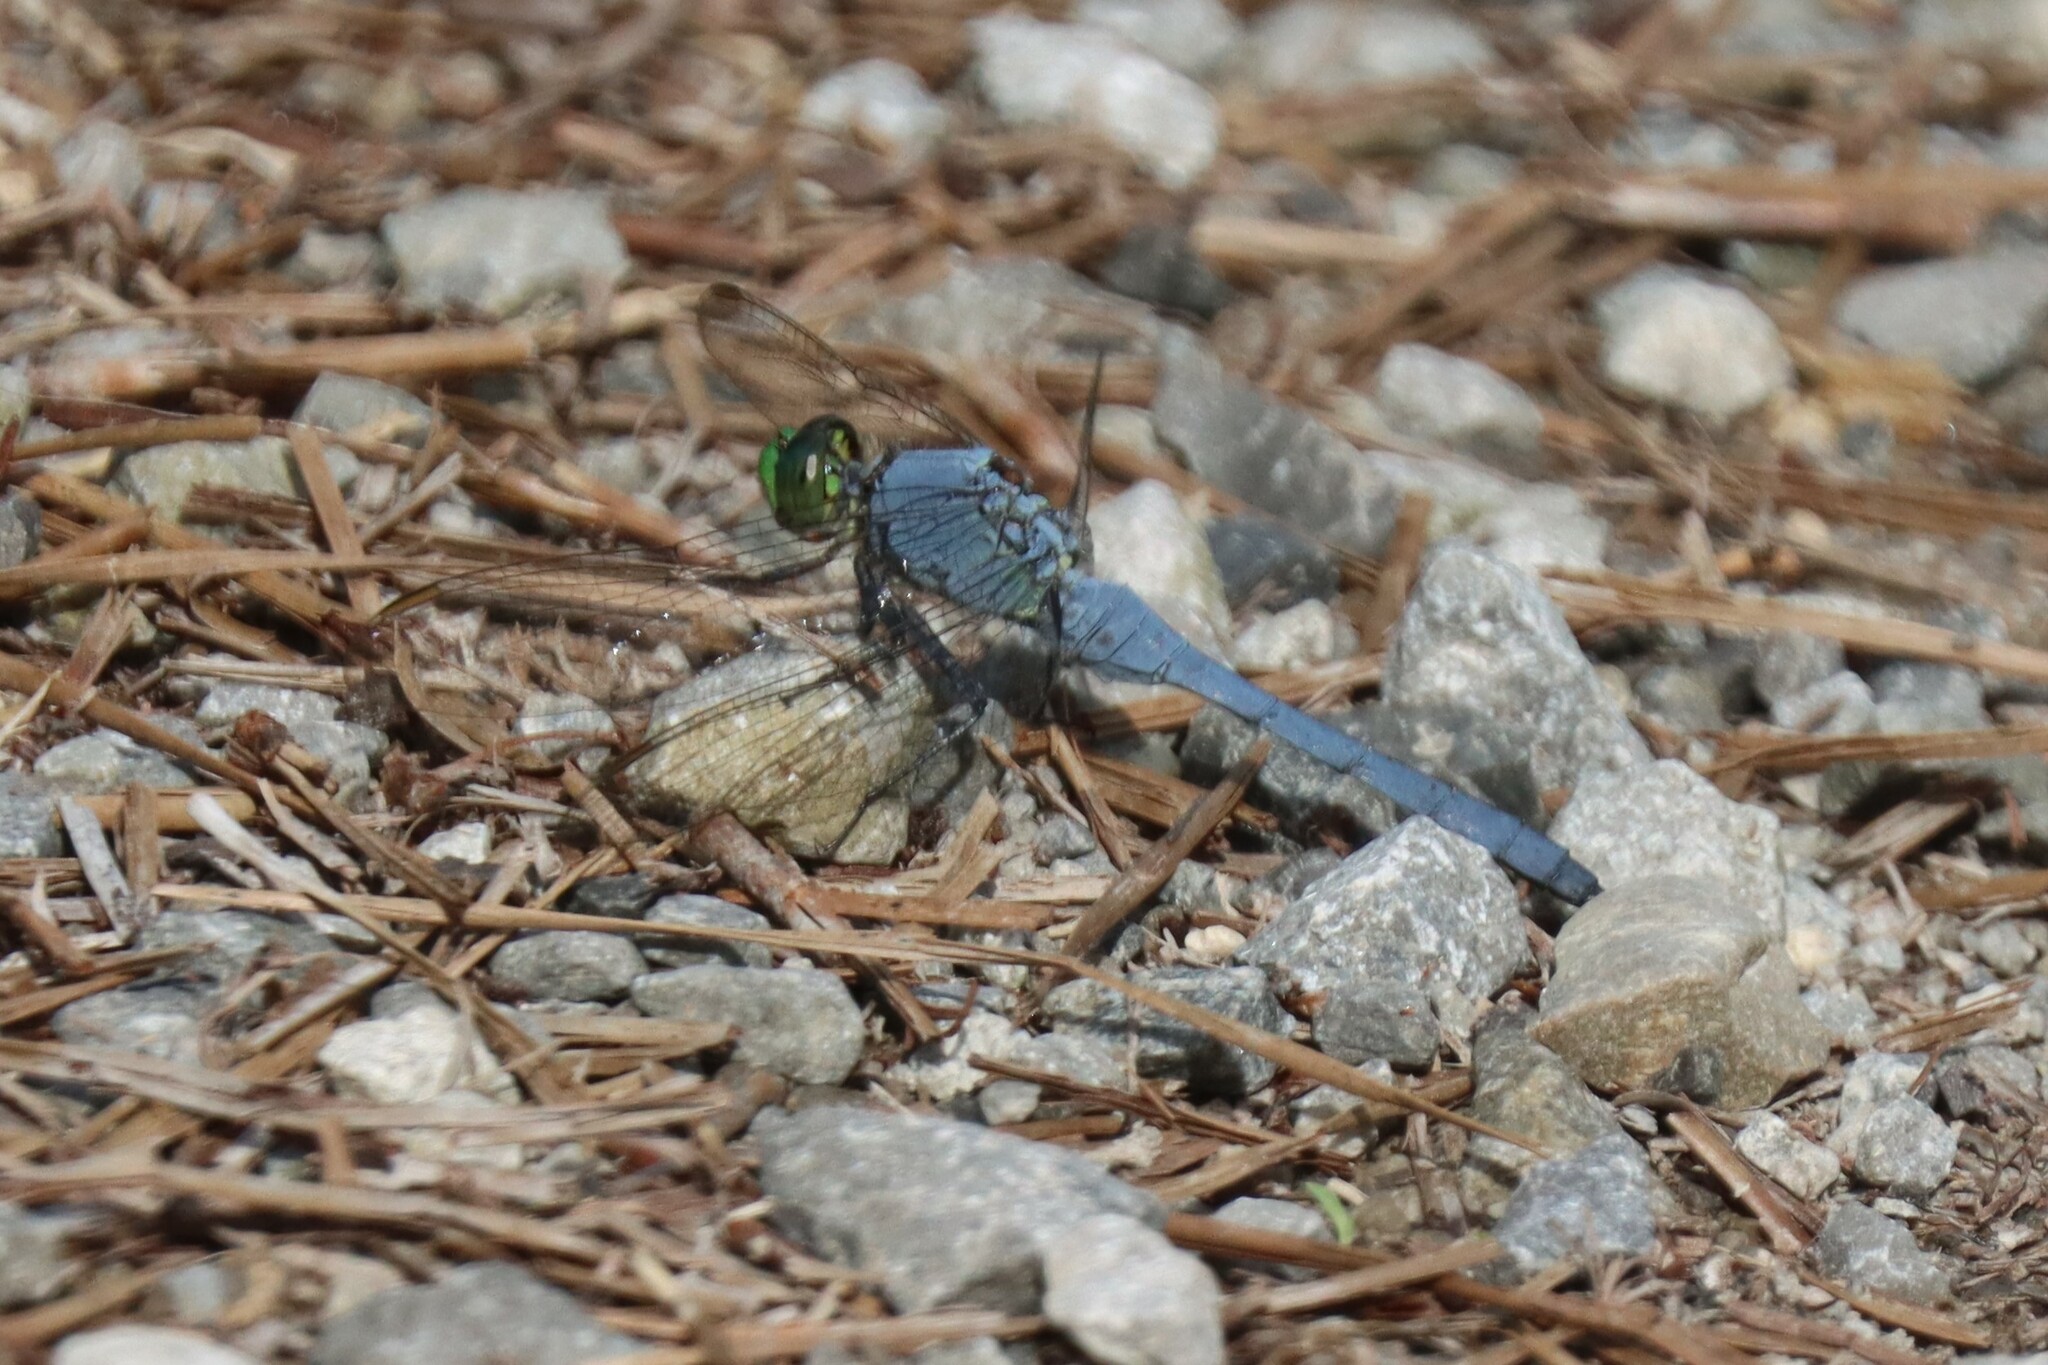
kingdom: Animalia
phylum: Arthropoda
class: Insecta
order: Odonata
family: Libellulidae
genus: Erythemis
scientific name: Erythemis simplicicollis
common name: Eastern pondhawk
